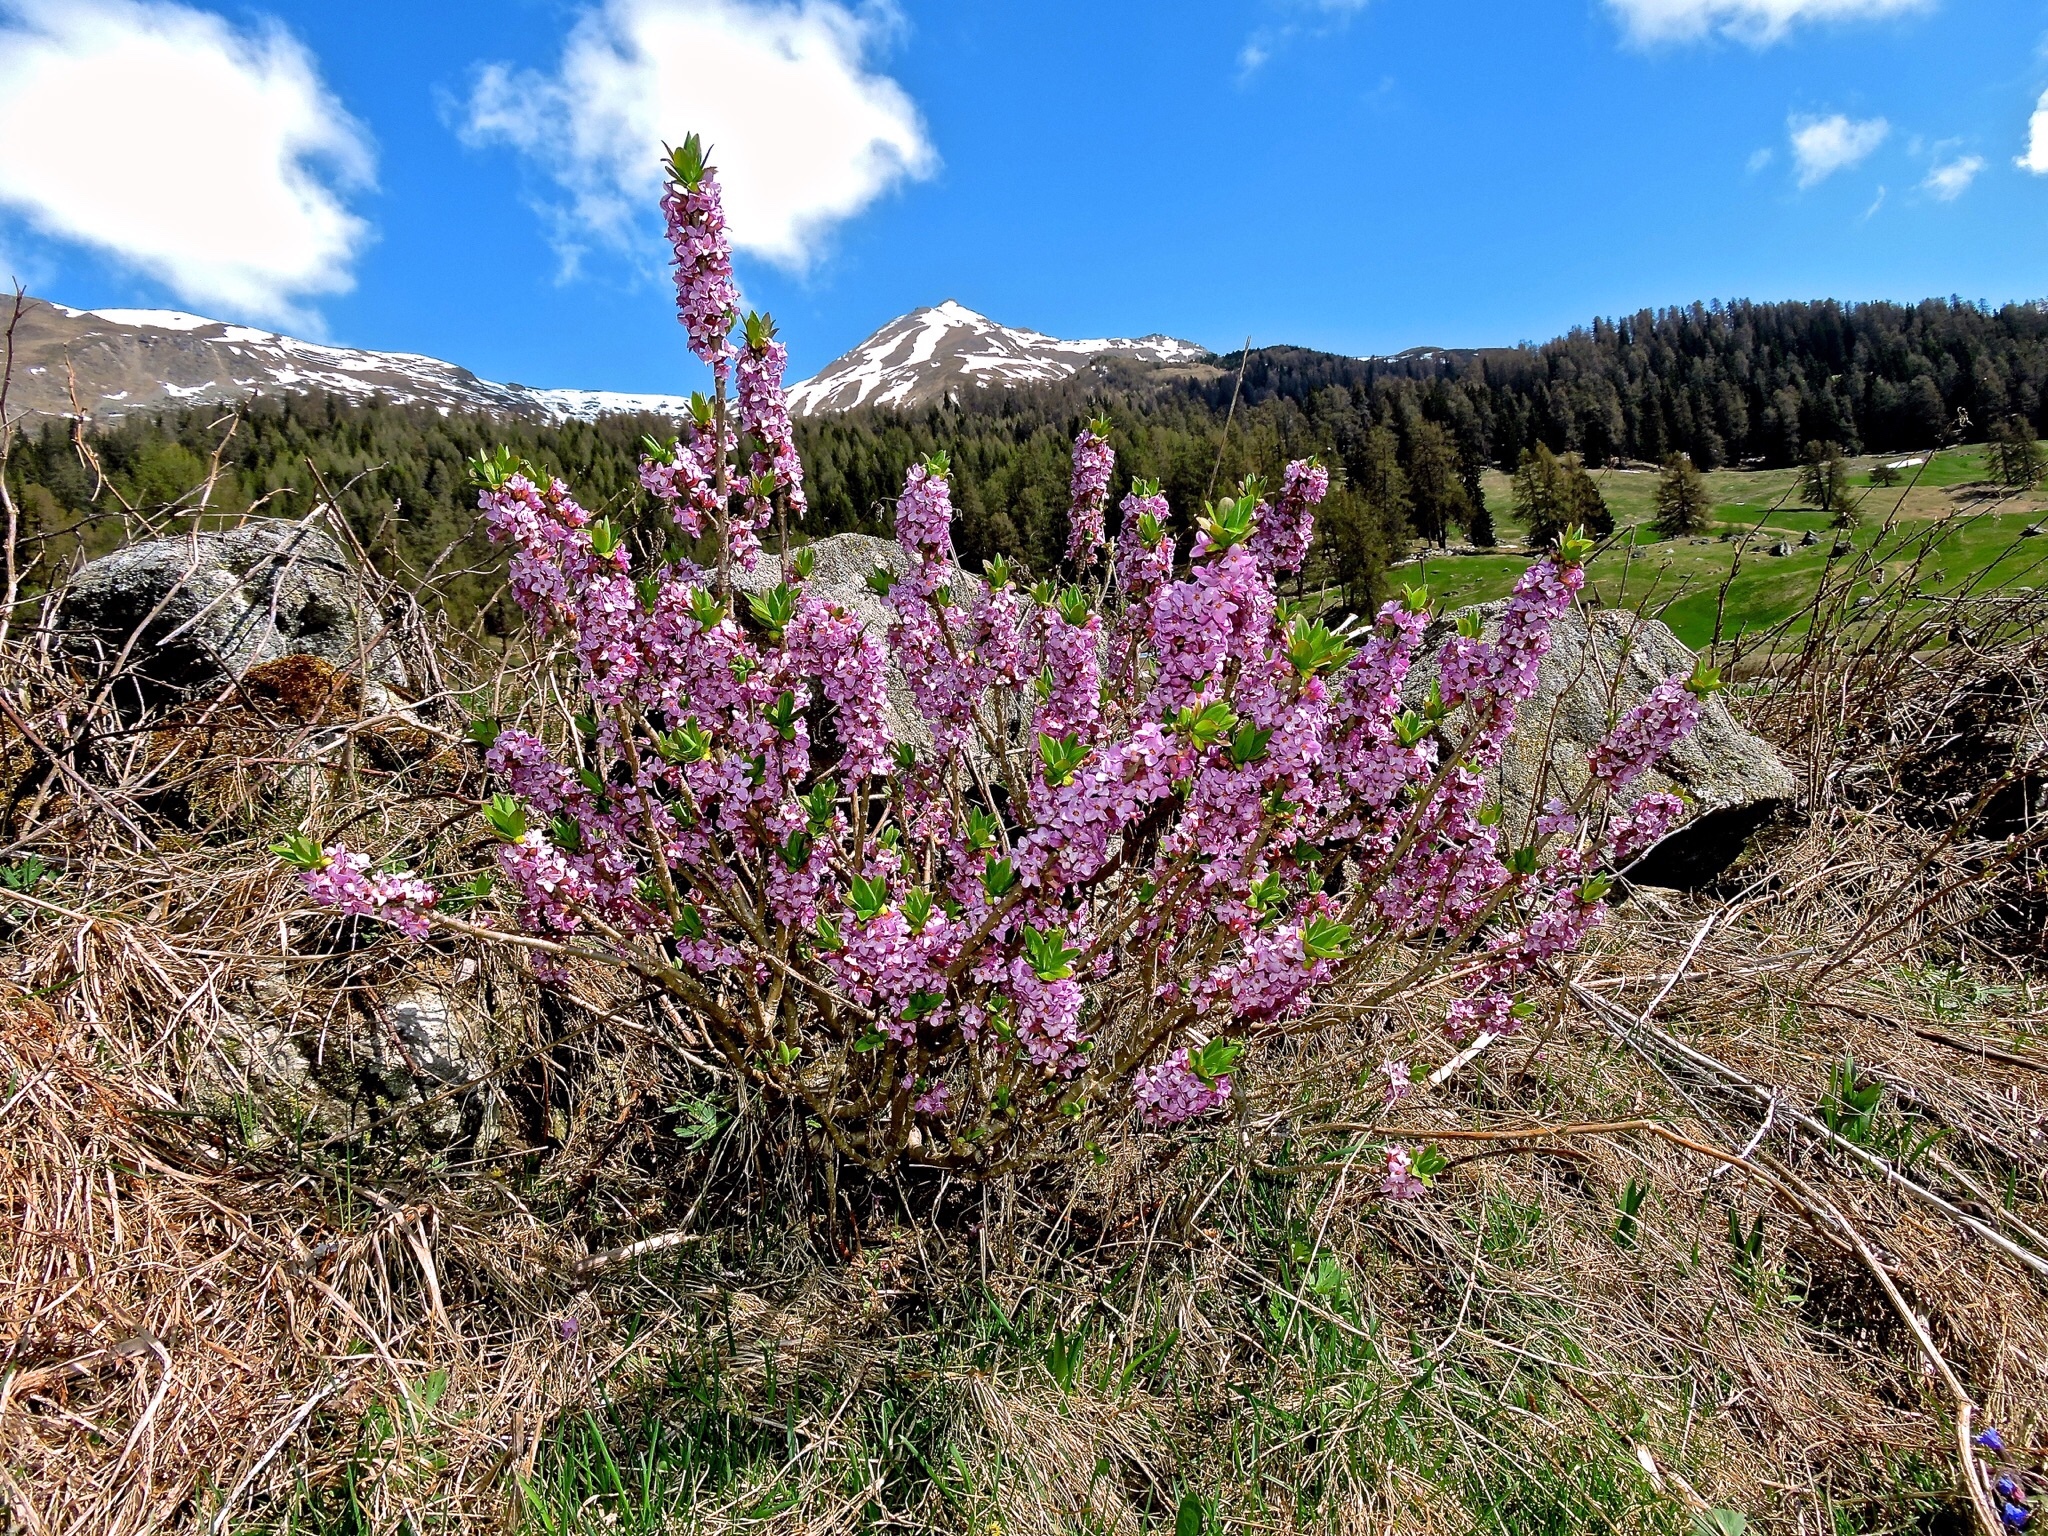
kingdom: Plantae
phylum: Tracheophyta
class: Magnoliopsida
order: Malvales
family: Thymelaeaceae
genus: Daphne
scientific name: Daphne mezereum
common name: Mezereon
